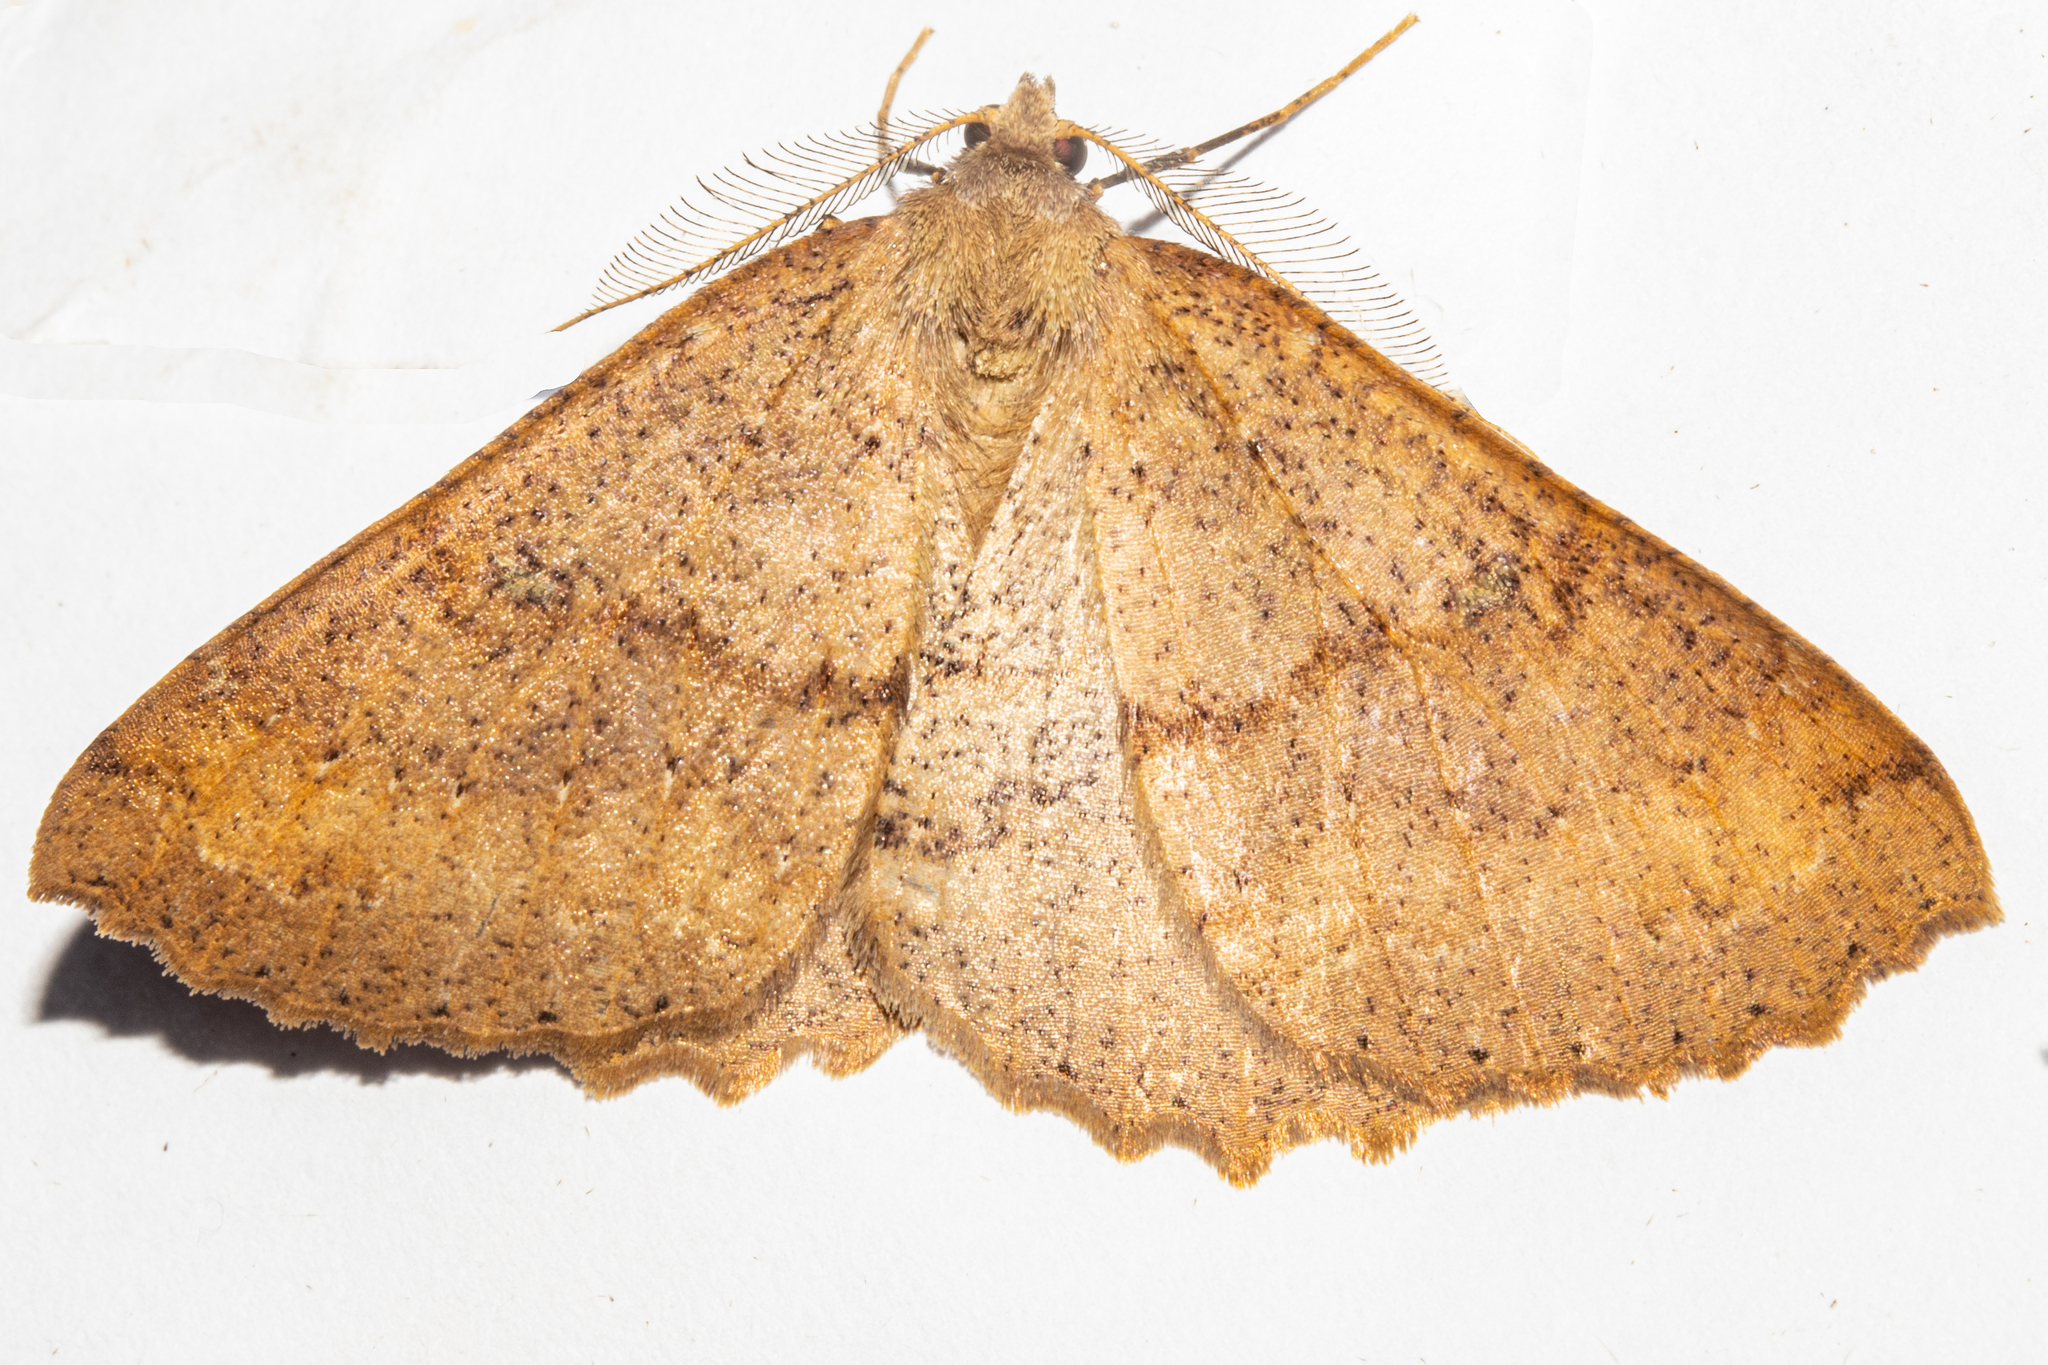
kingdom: Animalia
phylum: Arthropoda
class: Insecta
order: Lepidoptera
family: Geometridae
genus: Cleora
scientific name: Cleora scriptaria
